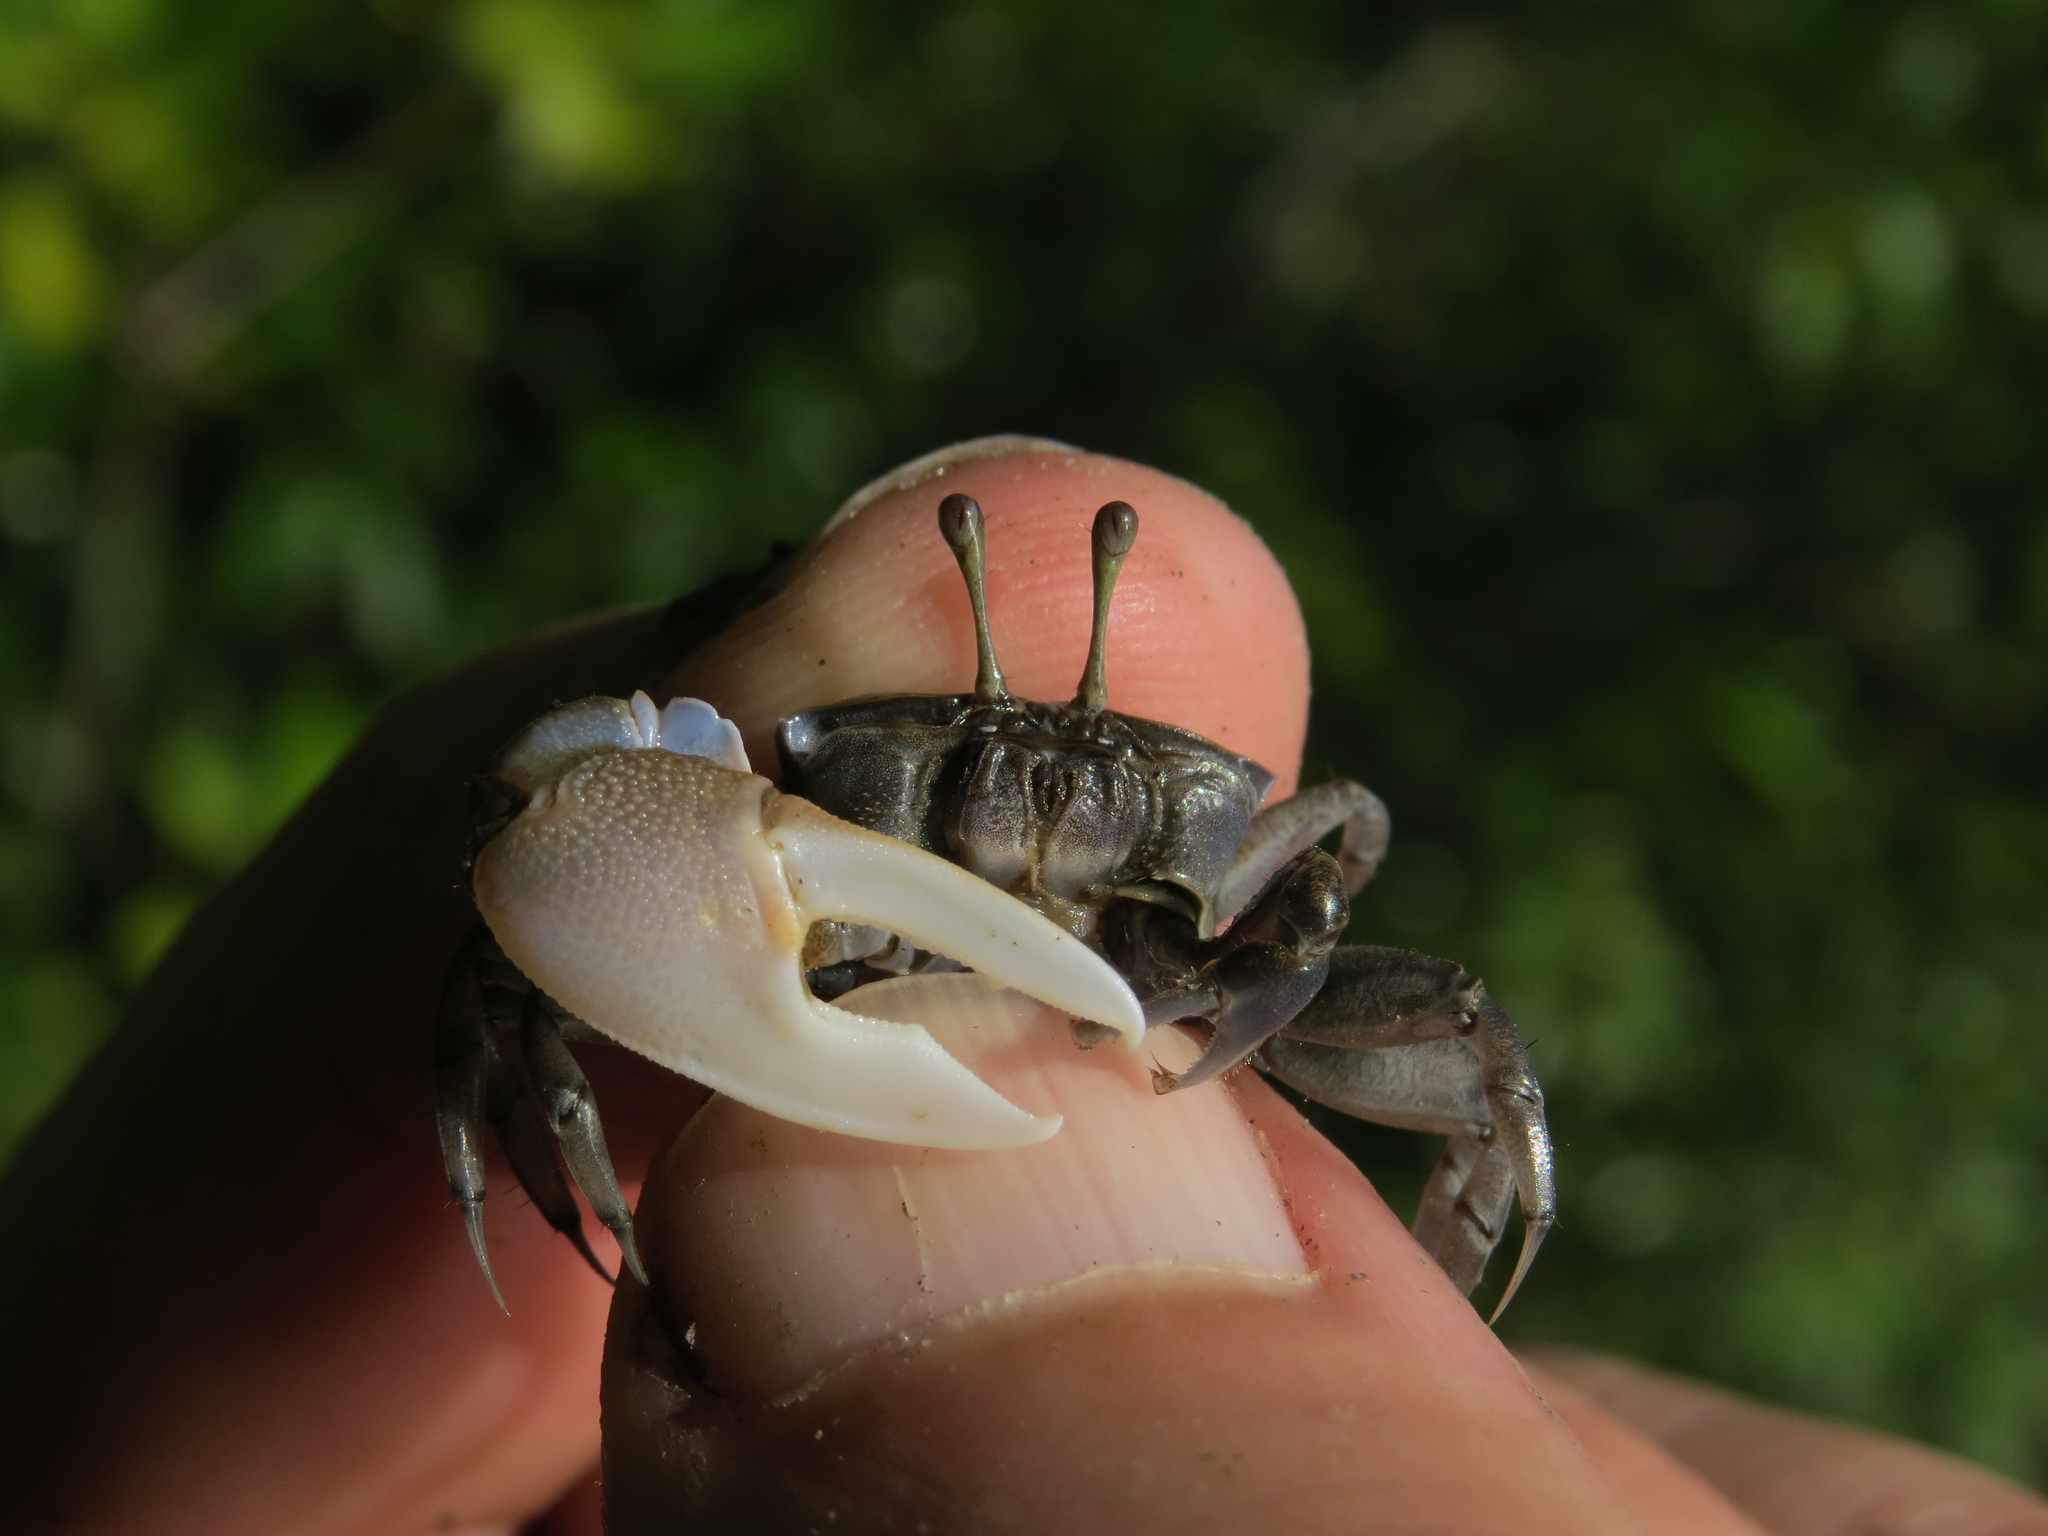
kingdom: Animalia
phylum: Arthropoda
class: Malacostraca
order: Decapoda
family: Ocypodidae
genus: Tubuca
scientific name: Tubuca seismella
